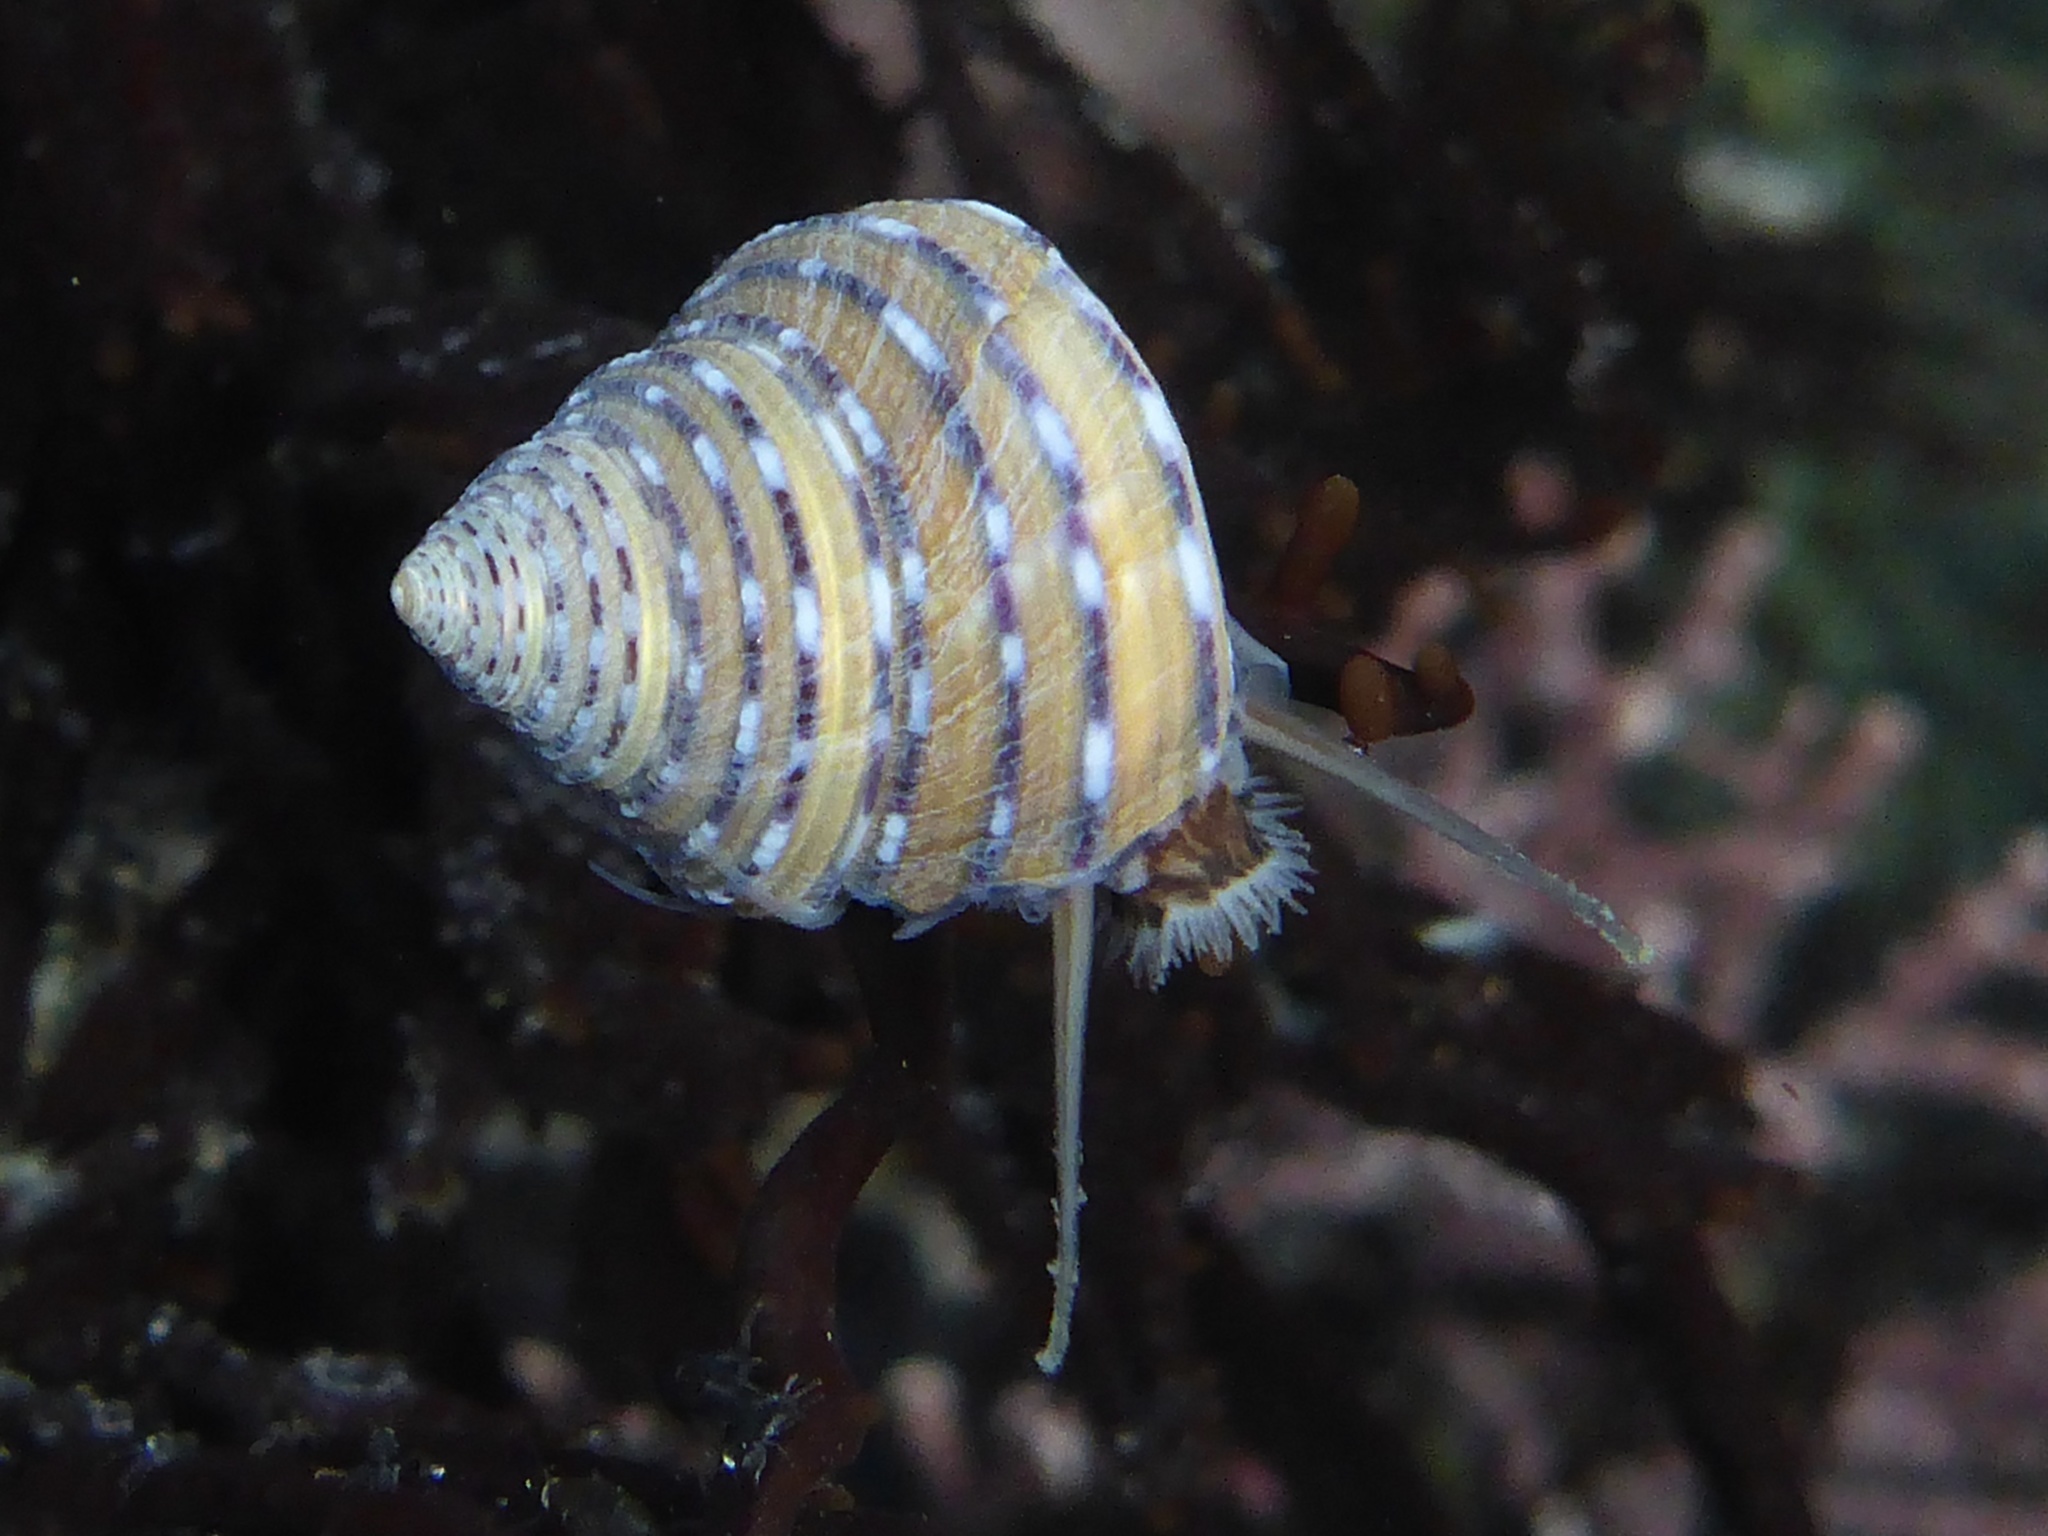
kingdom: Animalia
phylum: Mollusca
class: Gastropoda
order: Trochida
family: Calliostomatidae
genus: Calliostoma
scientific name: Calliostoma tricolor
